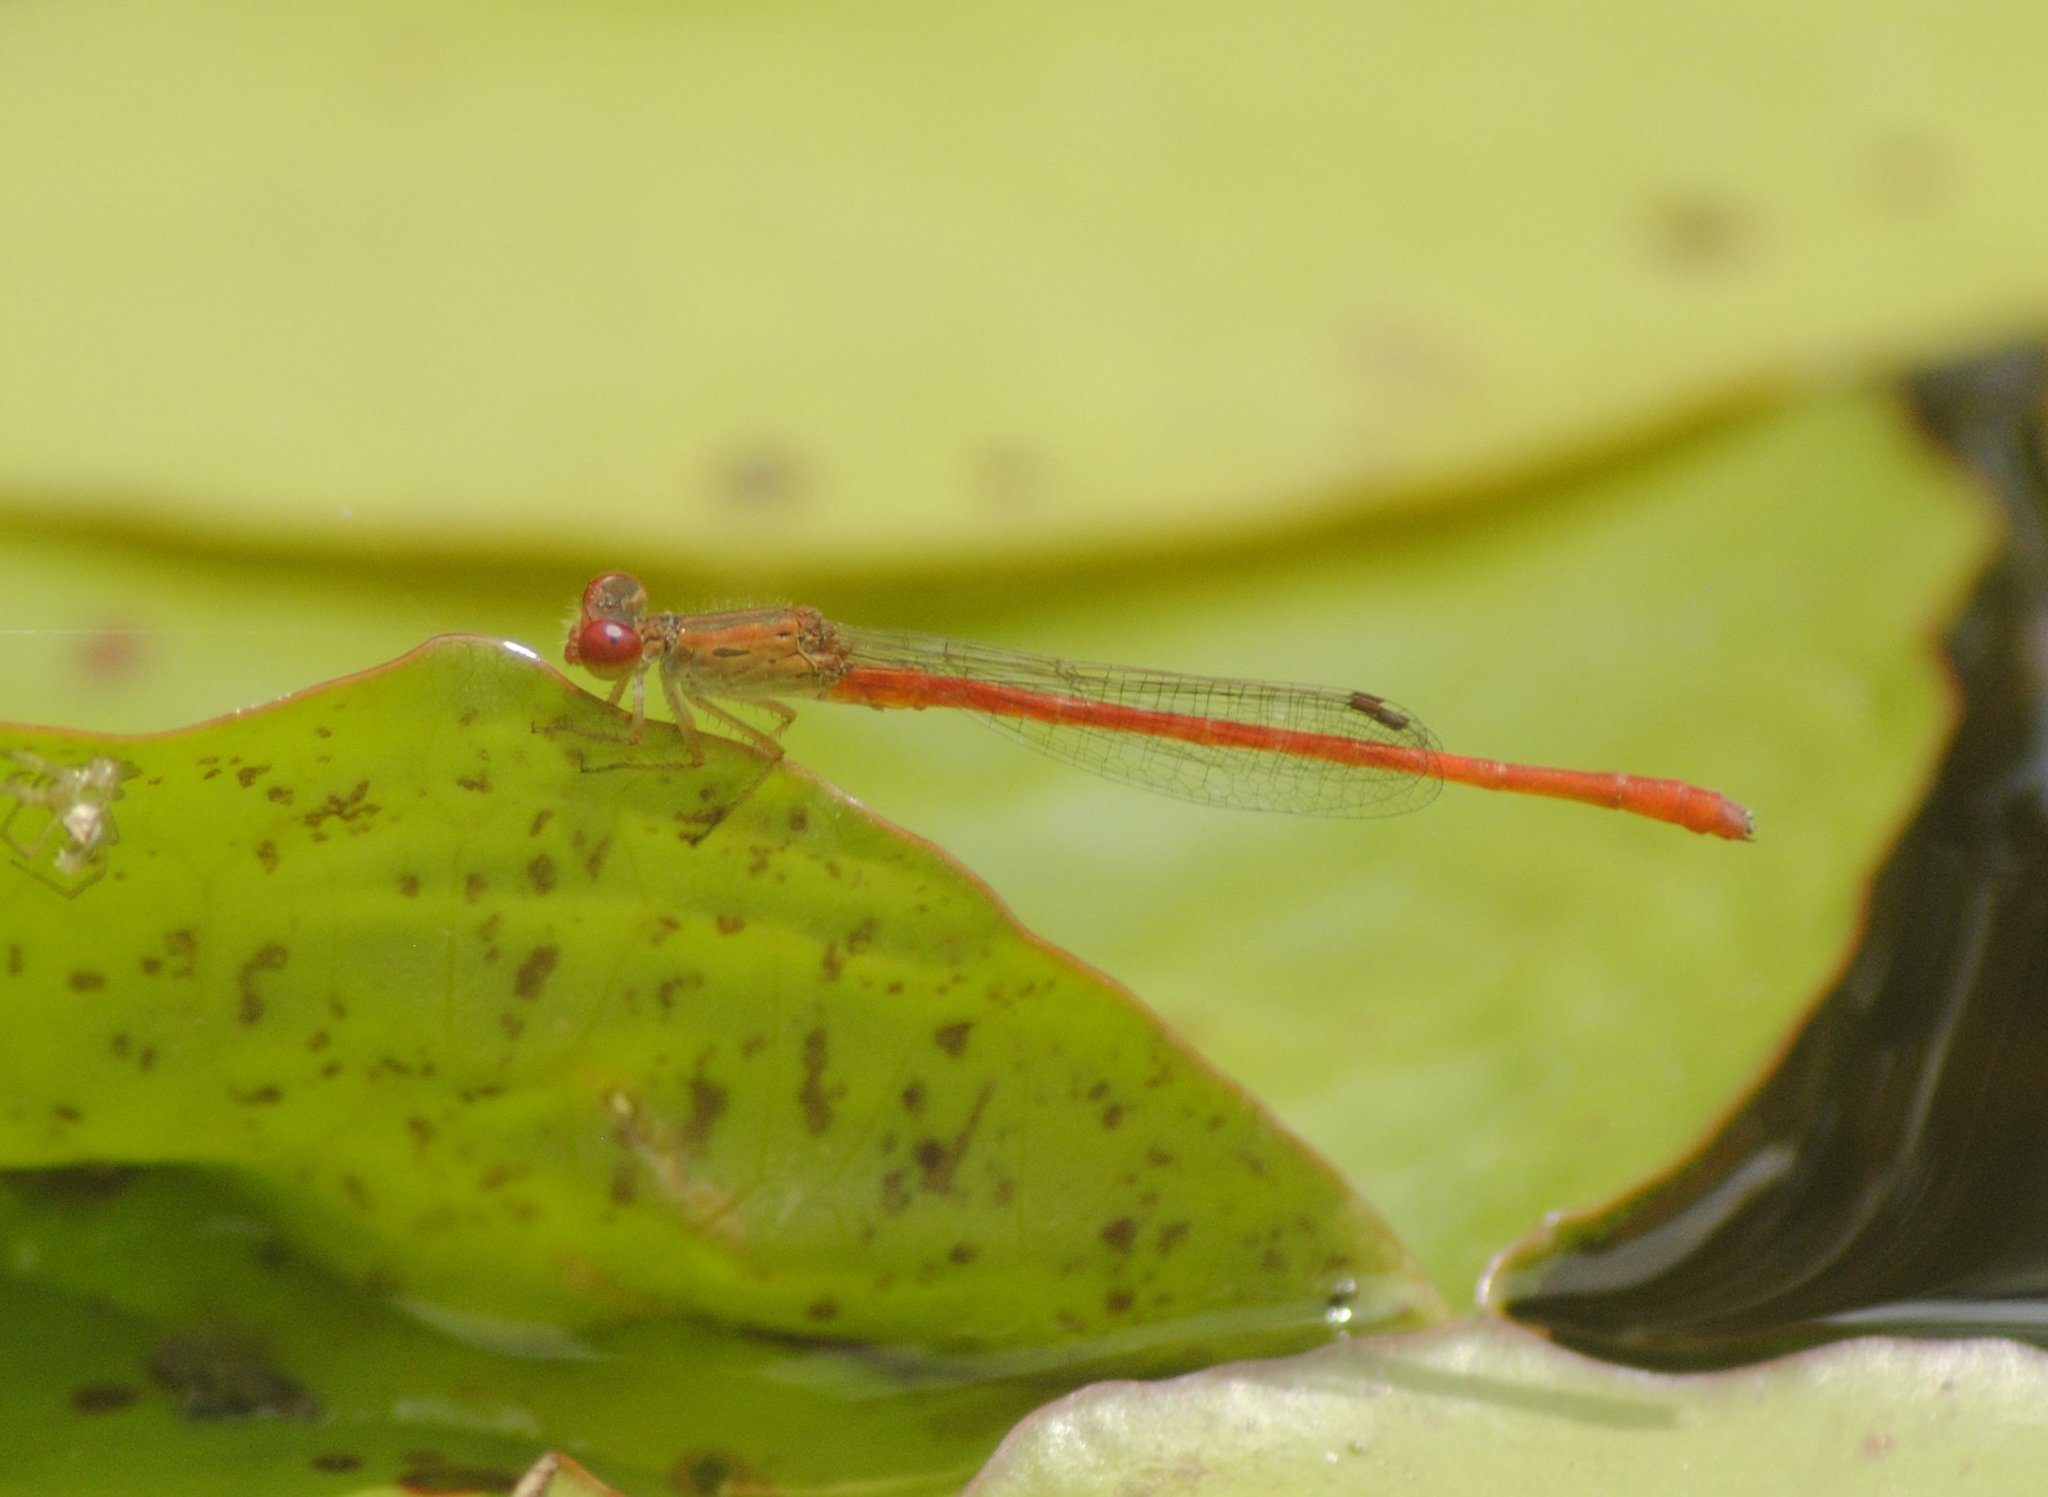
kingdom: Animalia
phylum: Arthropoda
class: Insecta
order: Odonata
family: Coenagrionidae
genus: Telebasis
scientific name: Telebasis salva
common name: Desert firetail
